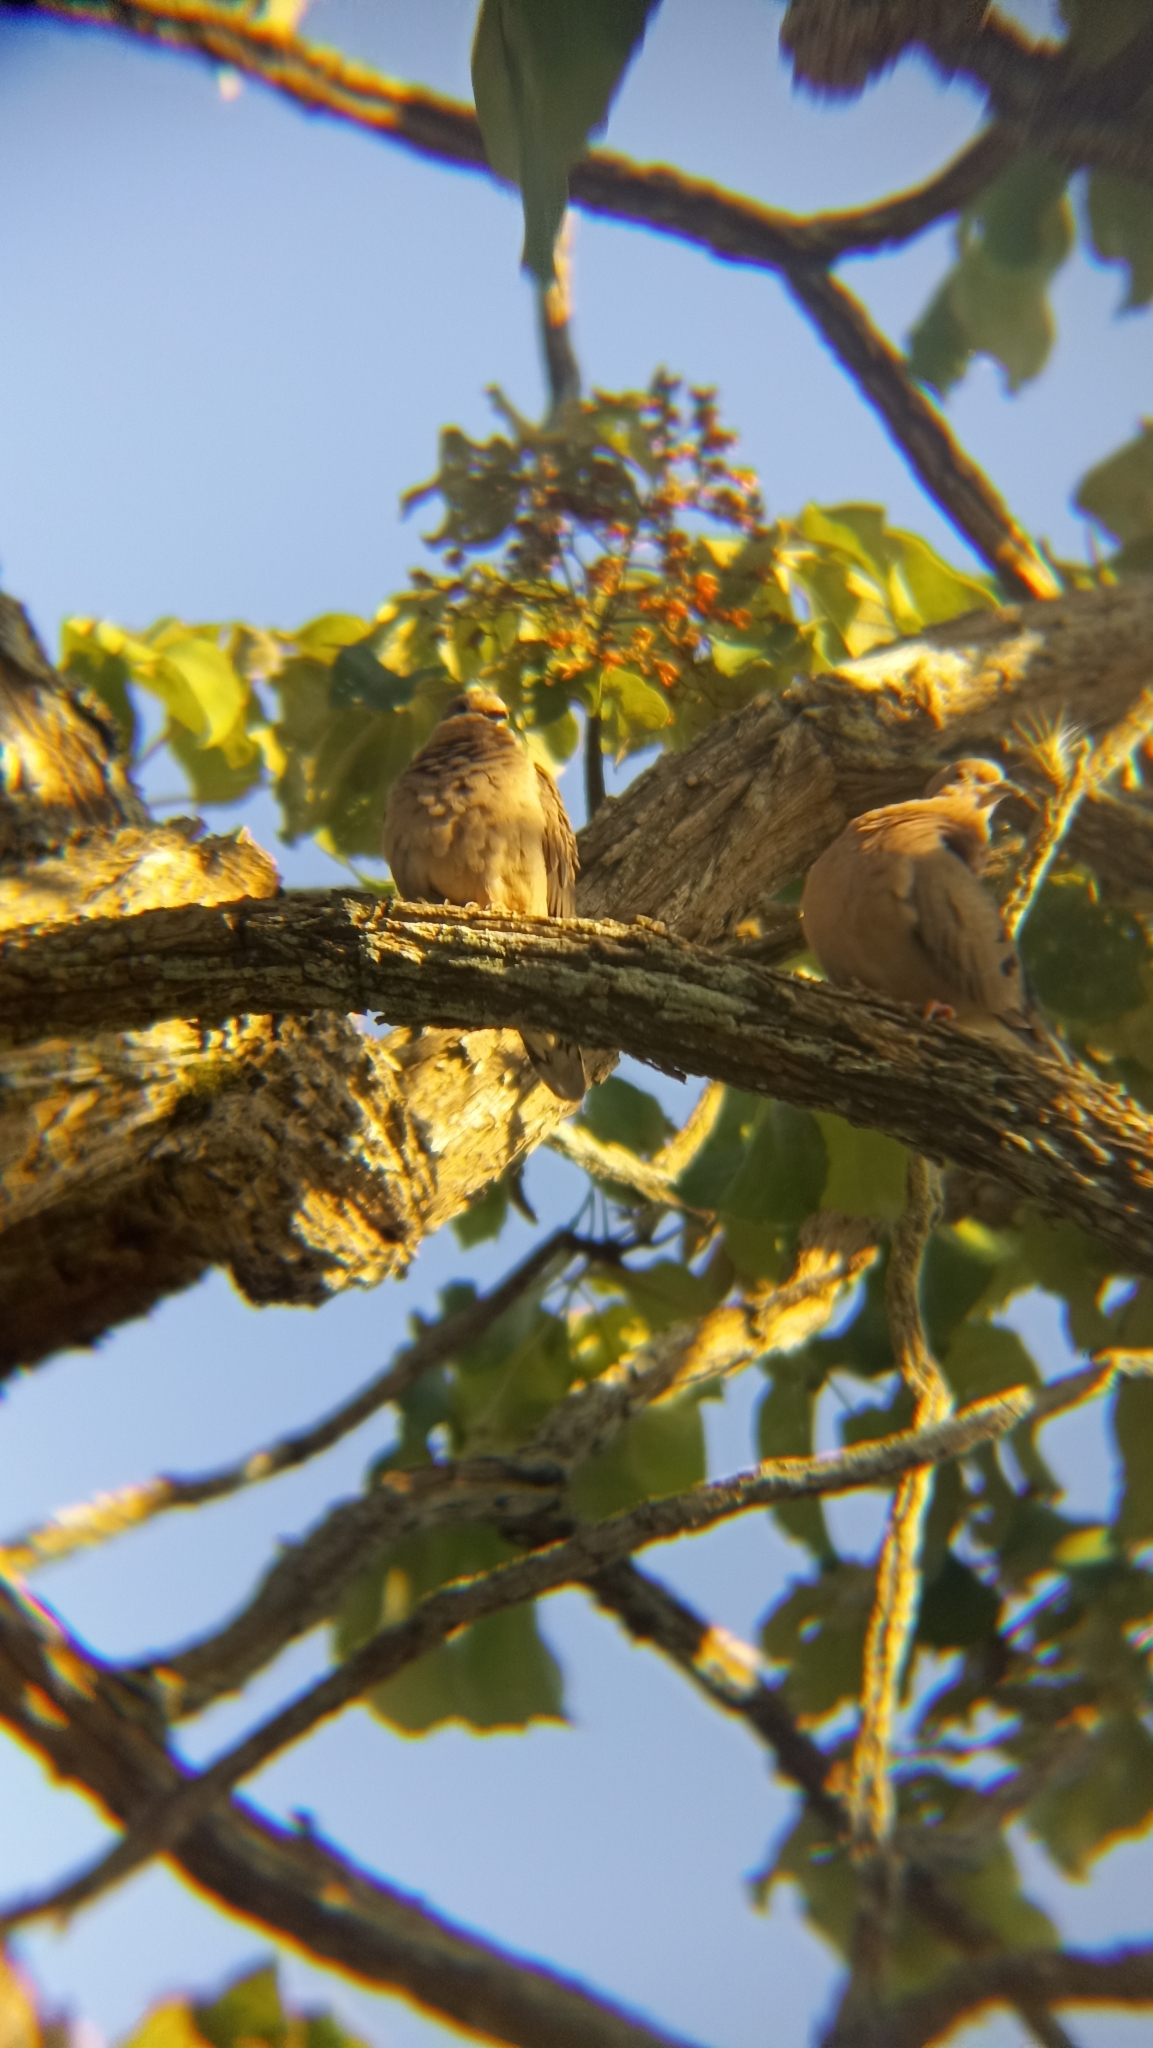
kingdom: Animalia
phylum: Chordata
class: Aves
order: Columbiformes
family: Columbidae
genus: Zenaida
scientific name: Zenaida auriculata
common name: Eared dove
